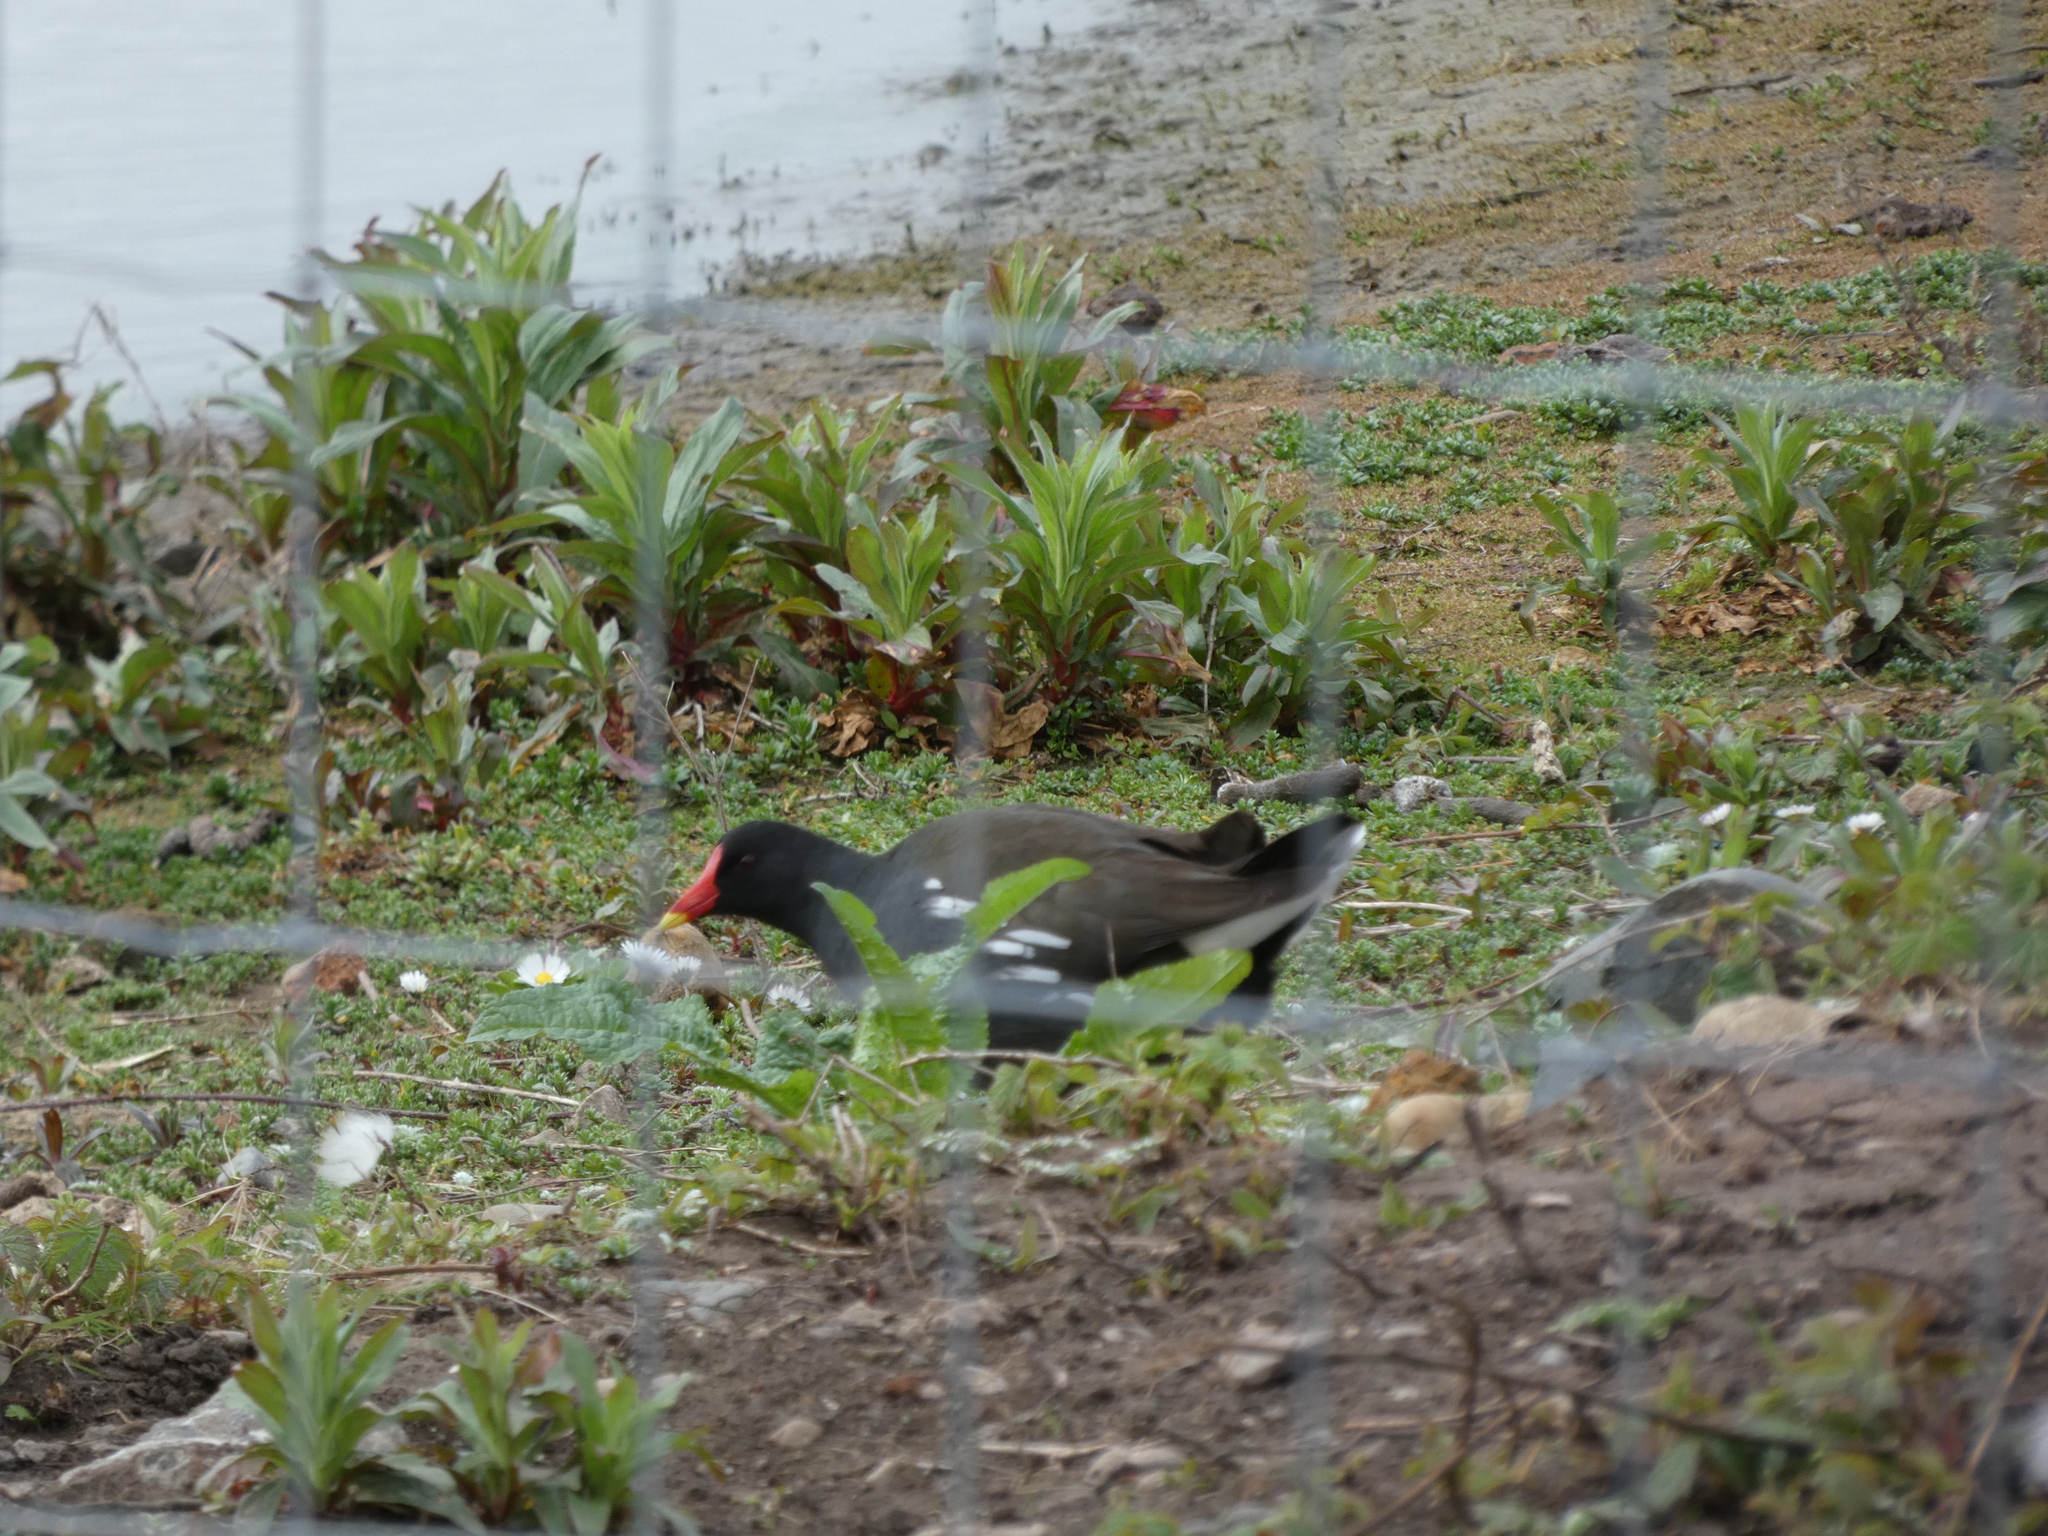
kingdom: Animalia
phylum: Chordata
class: Aves
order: Gruiformes
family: Rallidae
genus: Gallinula
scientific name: Gallinula chloropus
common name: Common moorhen
